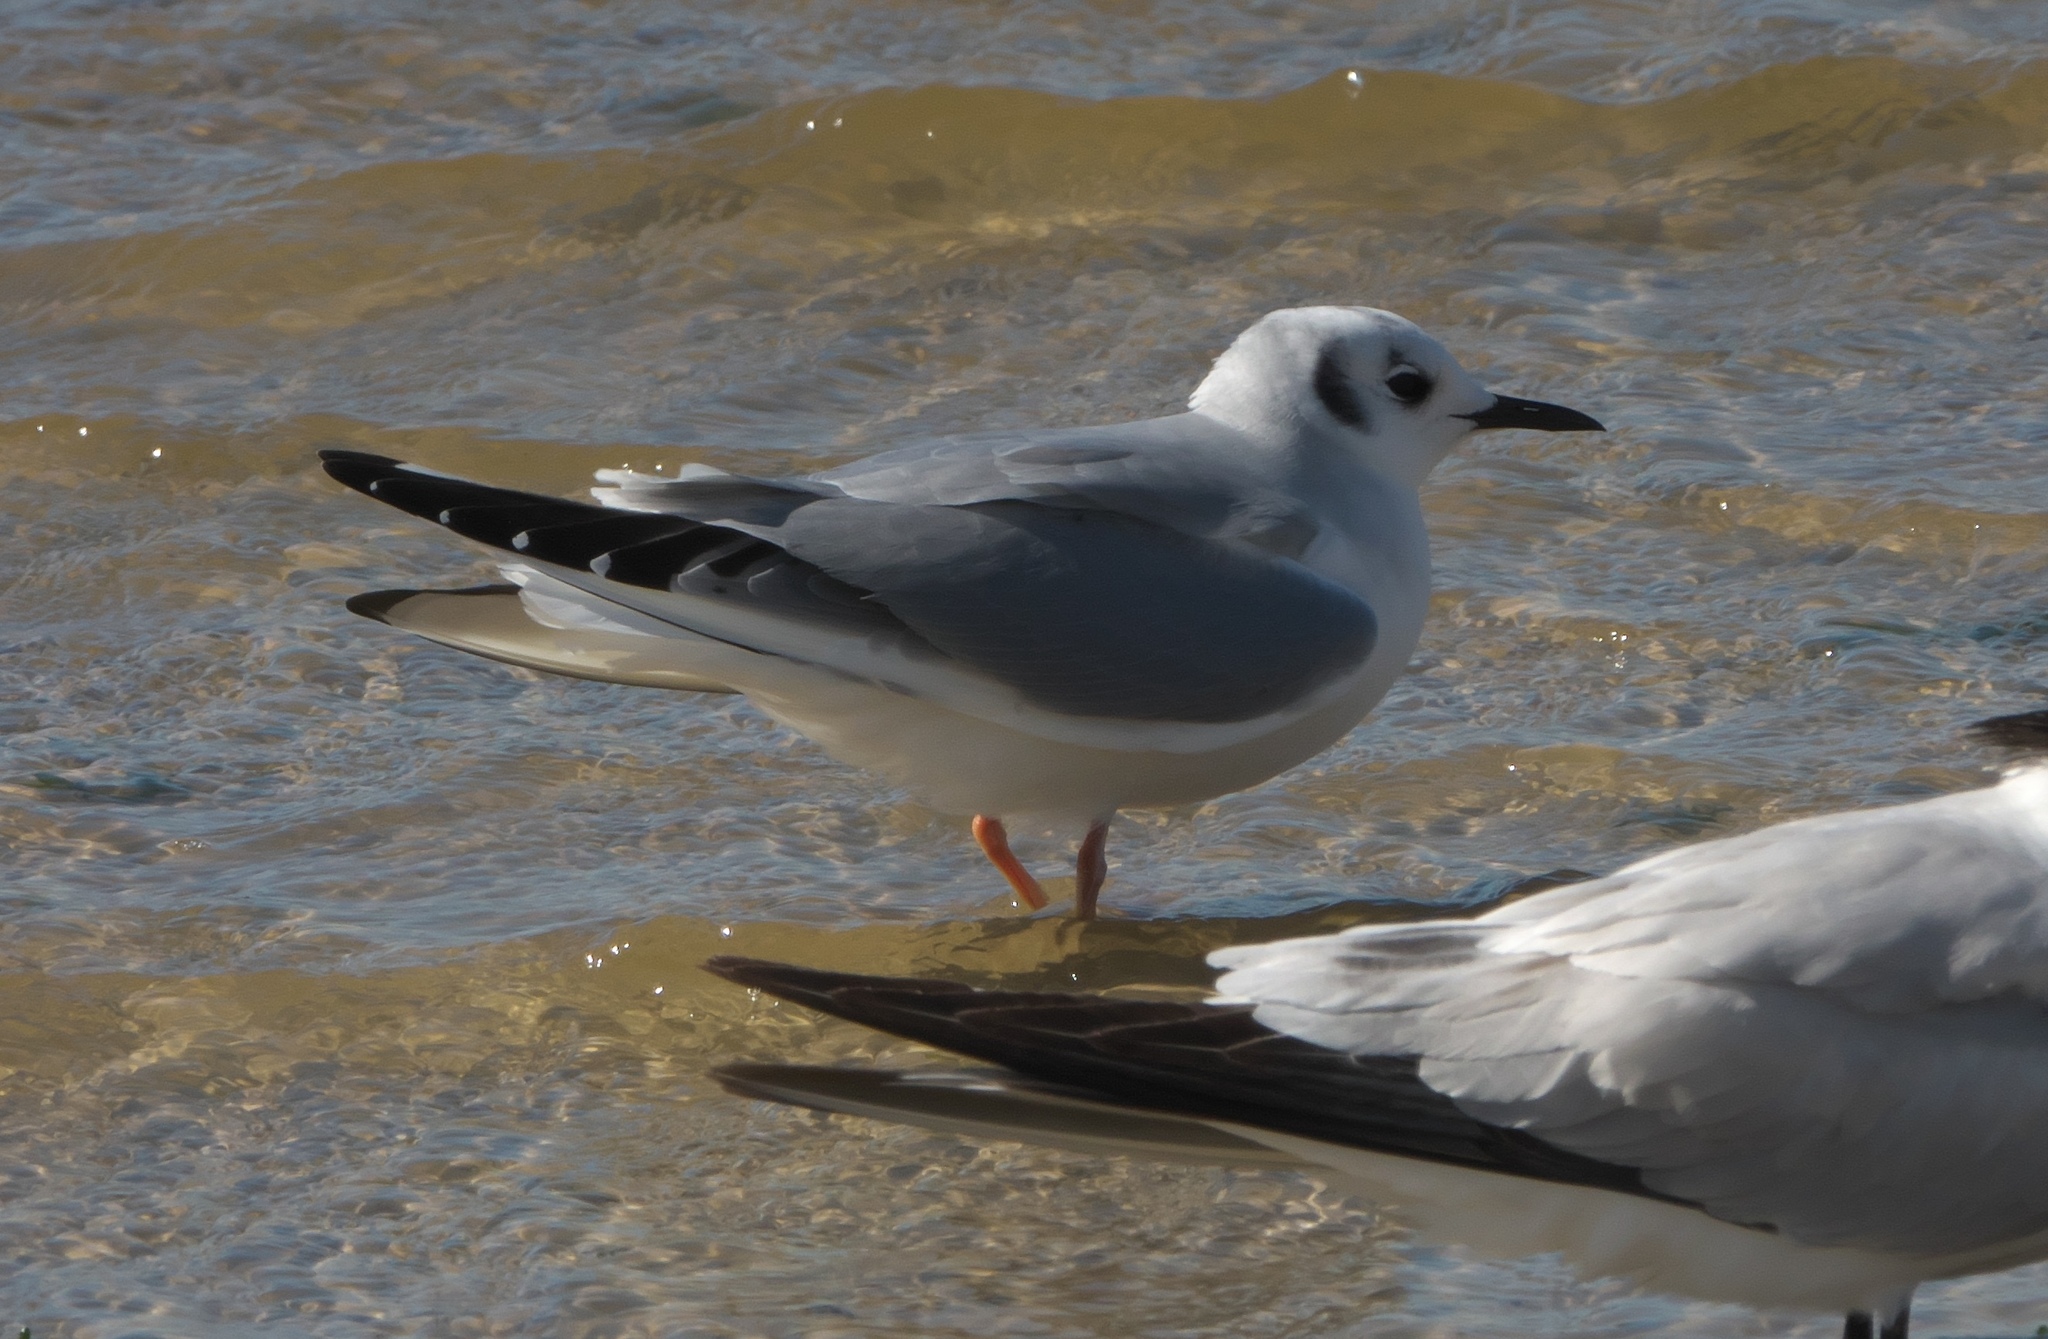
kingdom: Animalia
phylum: Chordata
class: Aves
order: Charadriiformes
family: Laridae
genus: Chroicocephalus
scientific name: Chroicocephalus philadelphia
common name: Bonaparte's gull
